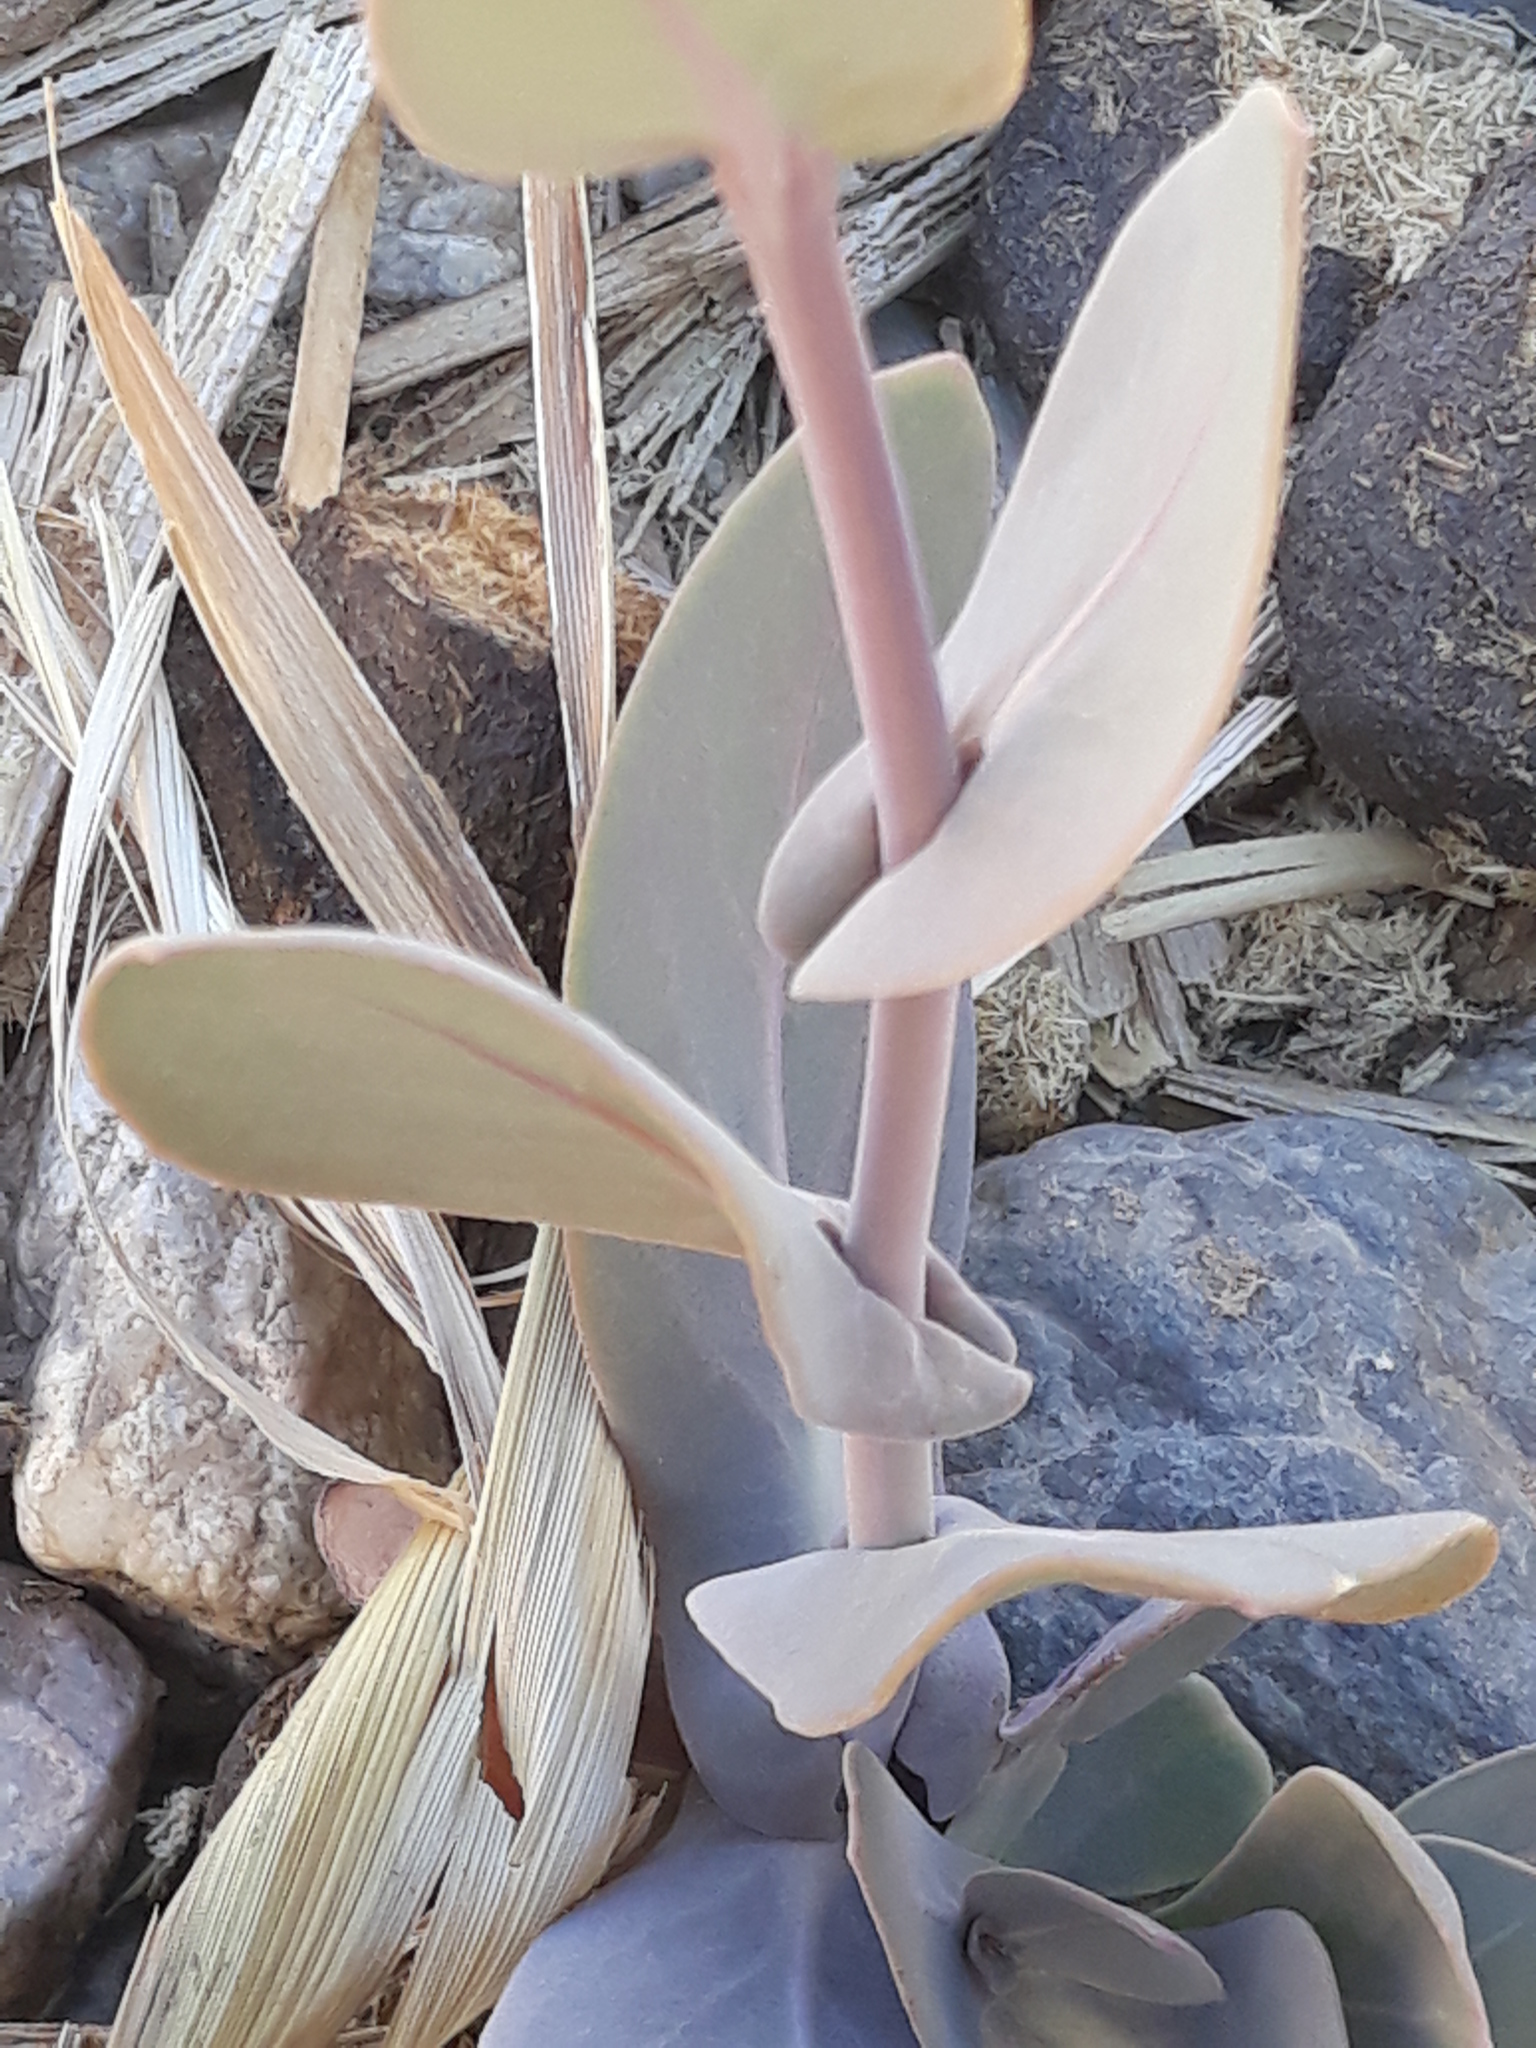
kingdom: Plantae
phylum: Tracheophyta
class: Magnoliopsida
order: Brassicales
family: Brassicaceae
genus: Moricandia
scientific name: Moricandia arvensis
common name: Purple mistress
